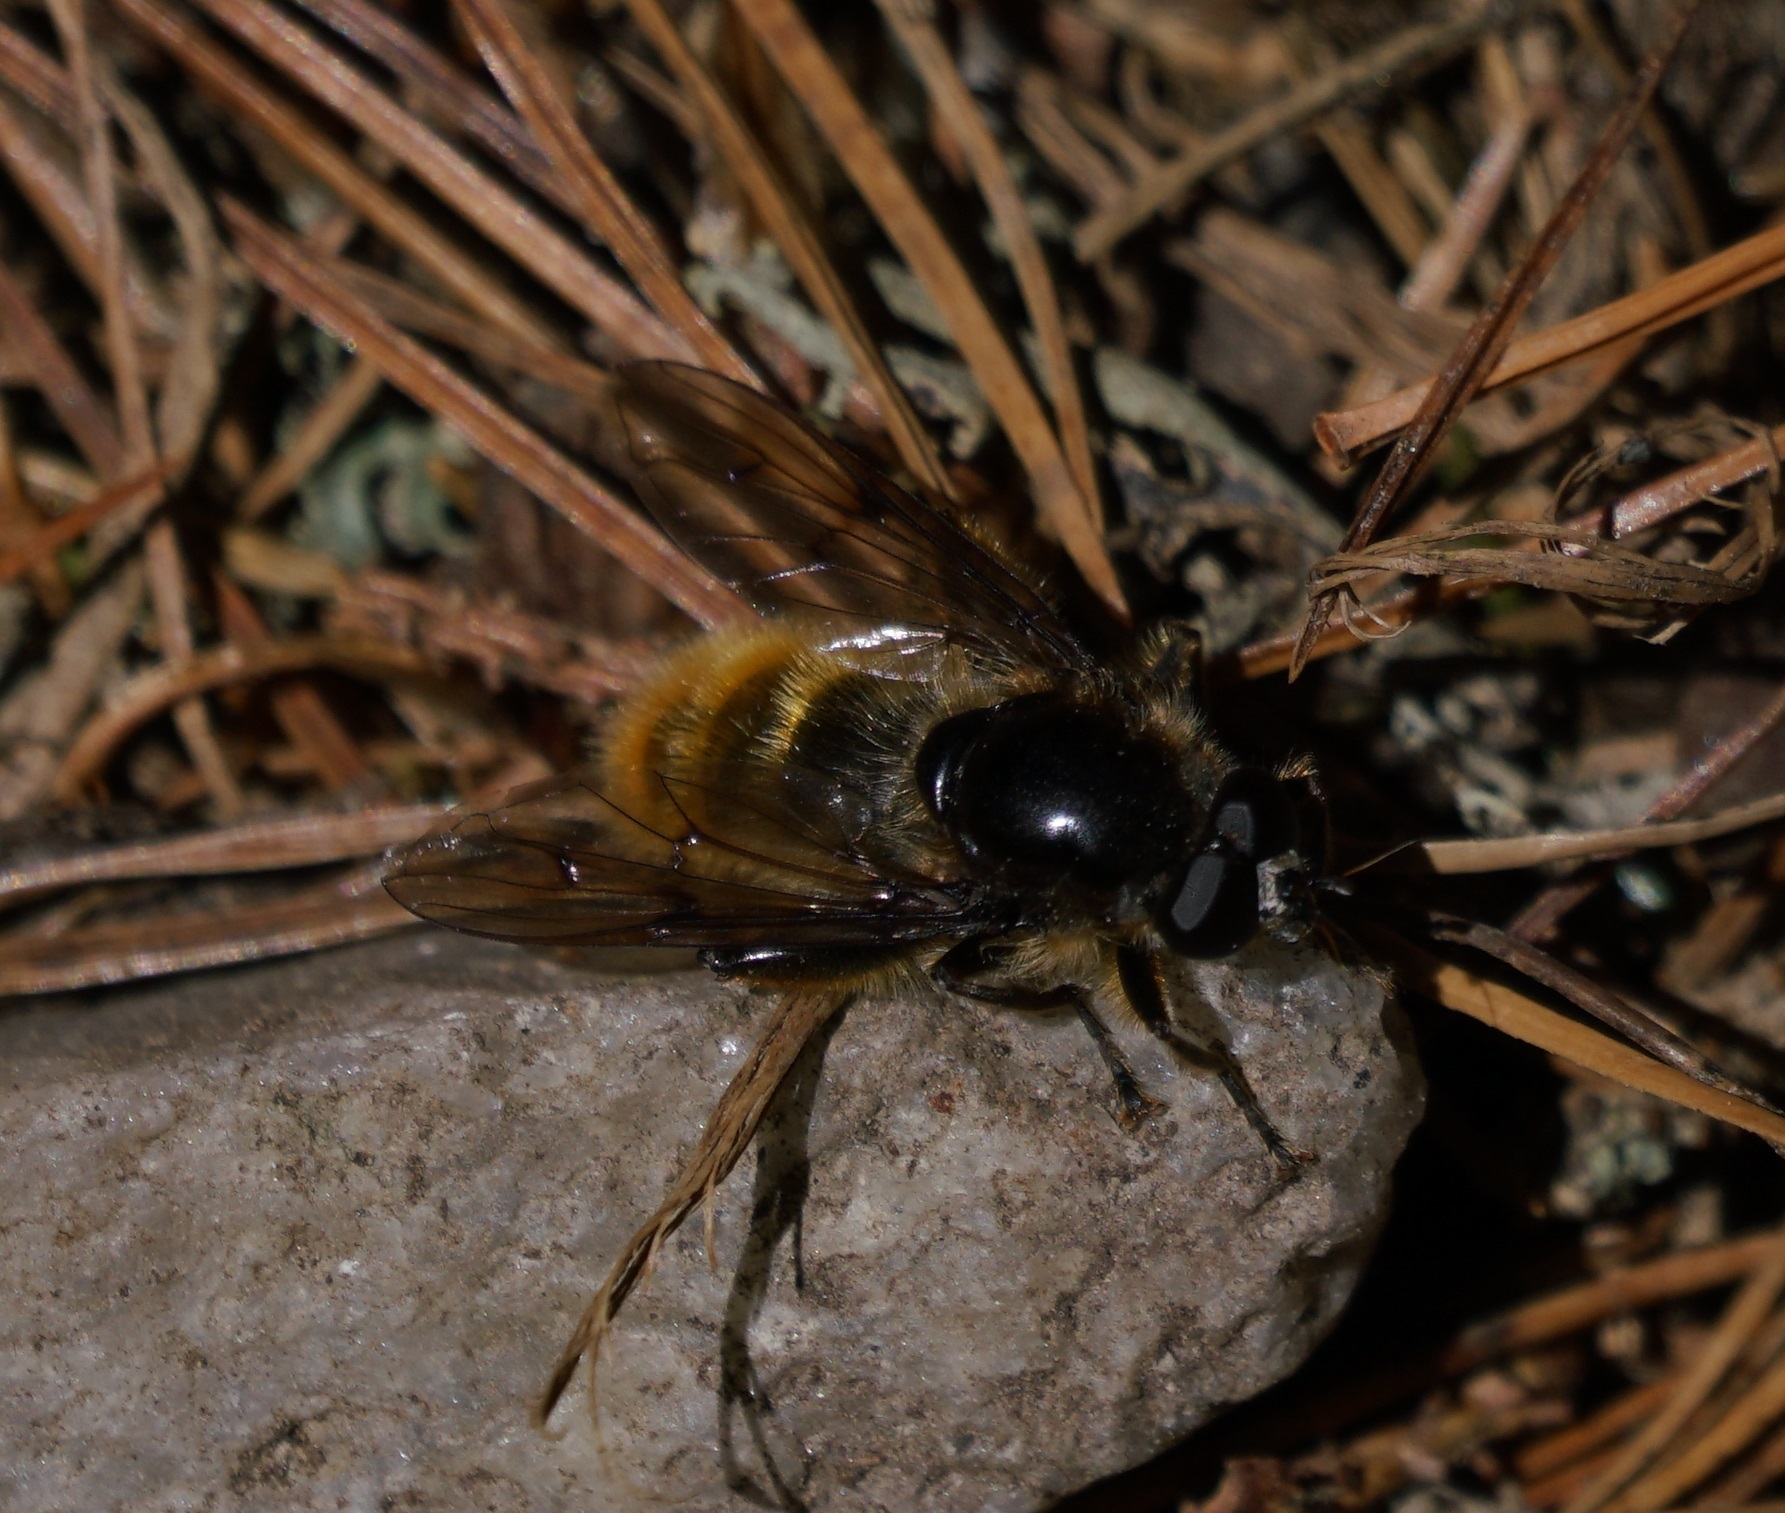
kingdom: Animalia
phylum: Arthropoda
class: Insecta
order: Diptera
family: Syrphidae
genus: Brachypalpus
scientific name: Brachypalpus chrysites
